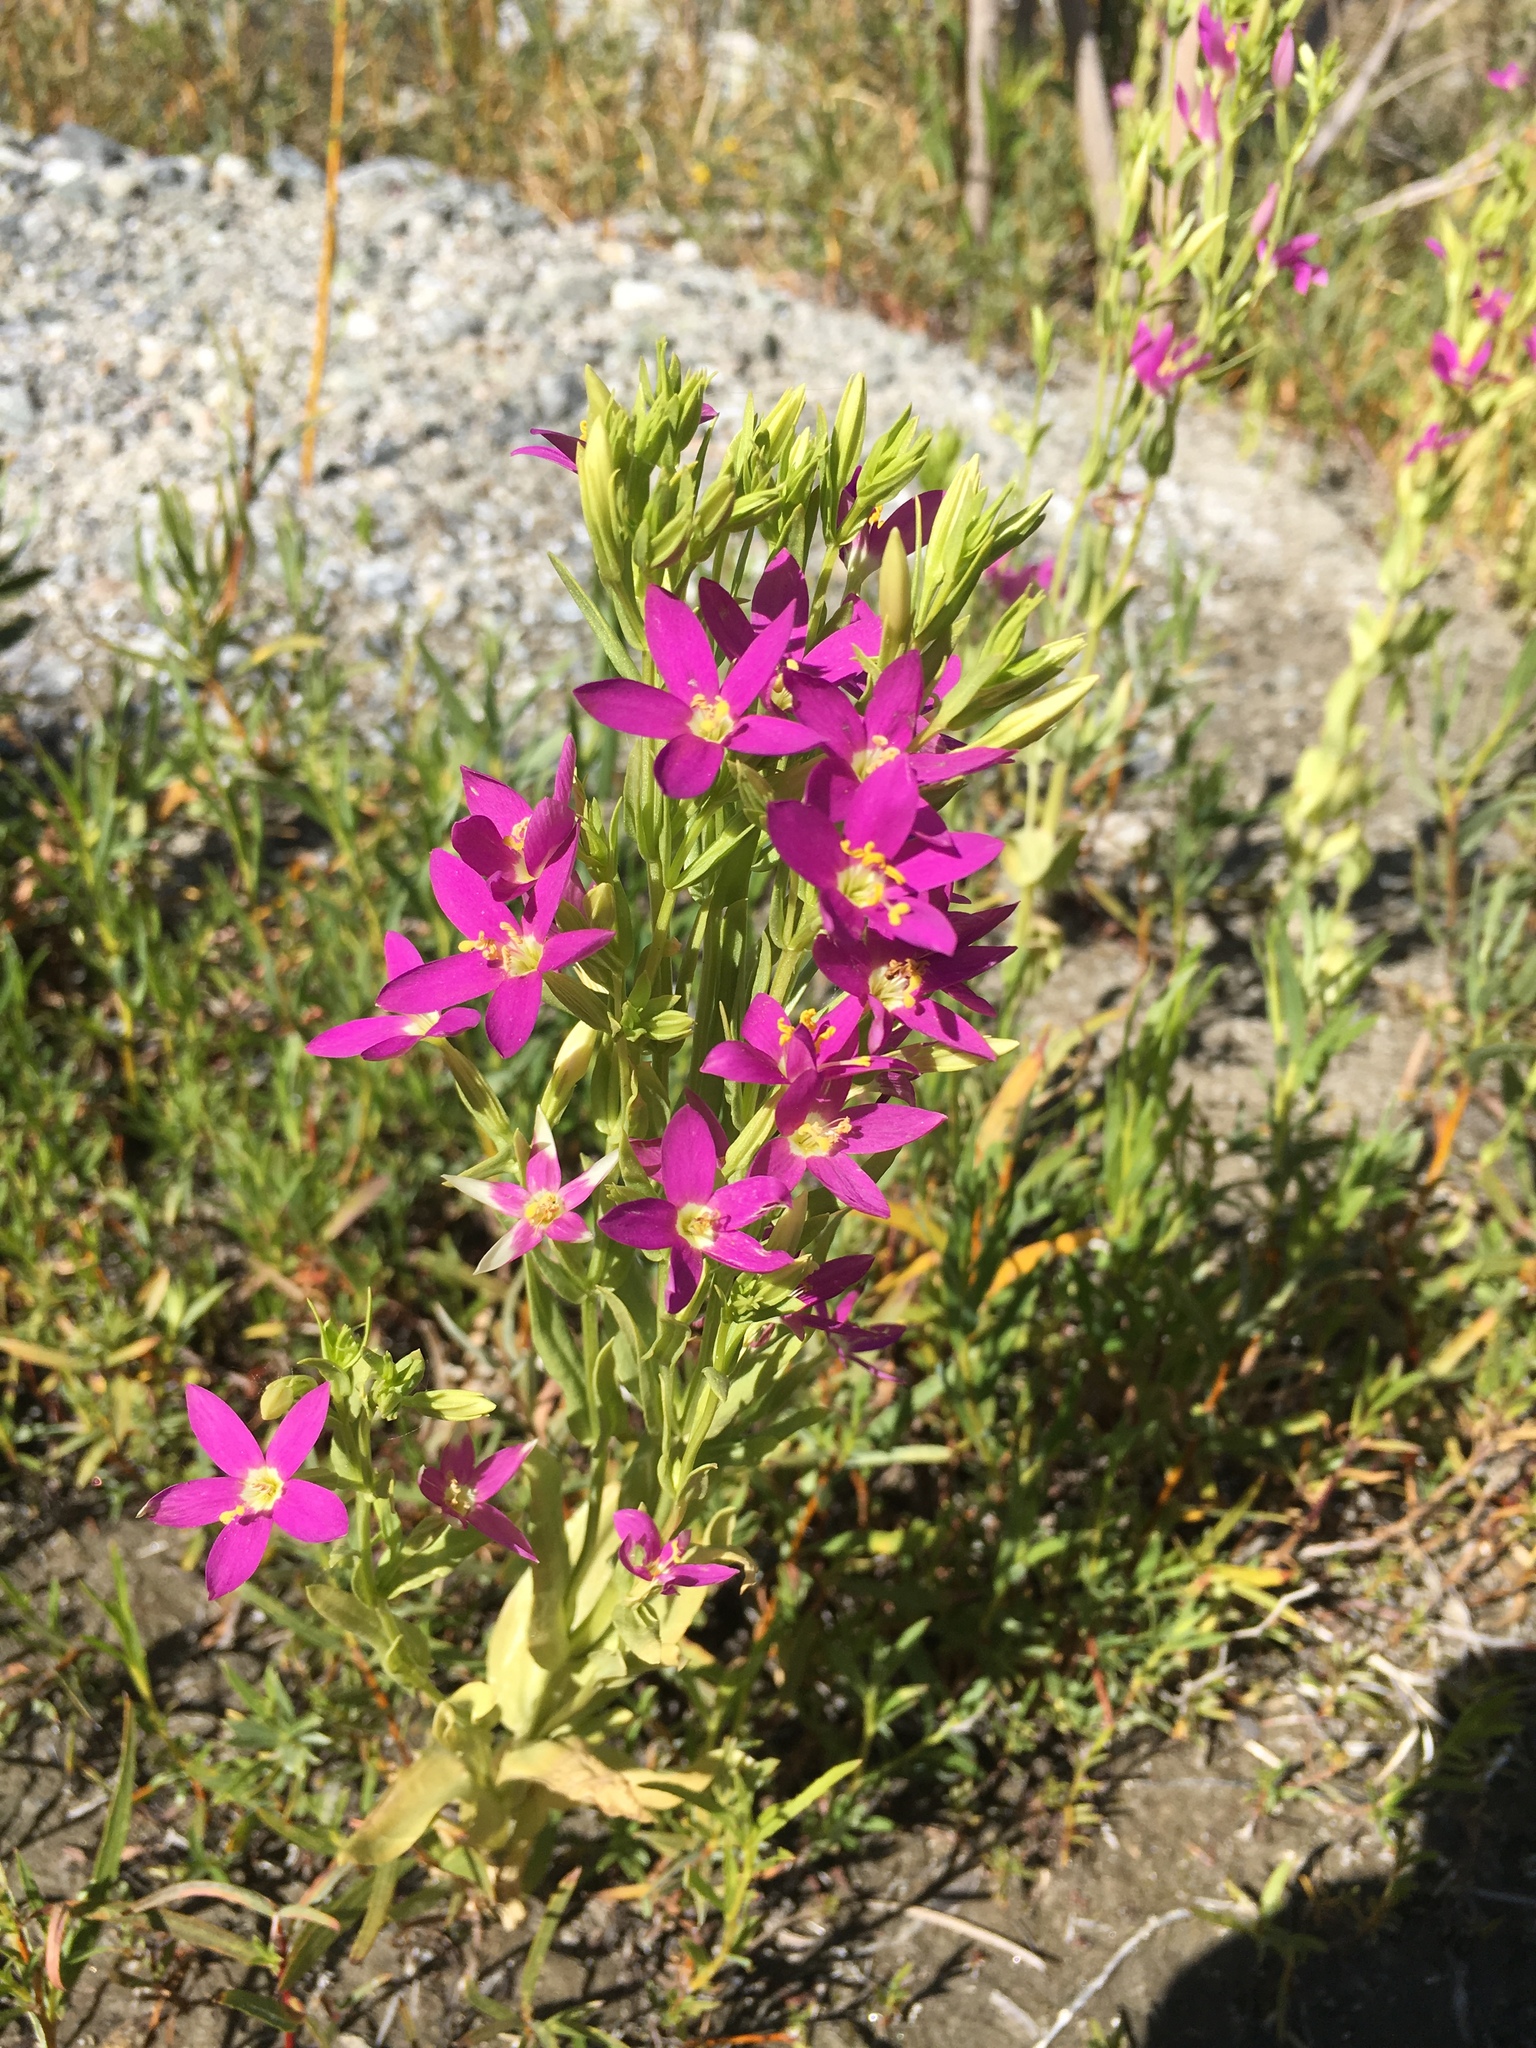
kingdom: Plantae
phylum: Tracheophyta
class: Magnoliopsida
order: Gentianales
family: Gentianaceae
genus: Zeltnera
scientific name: Zeltnera venusta
